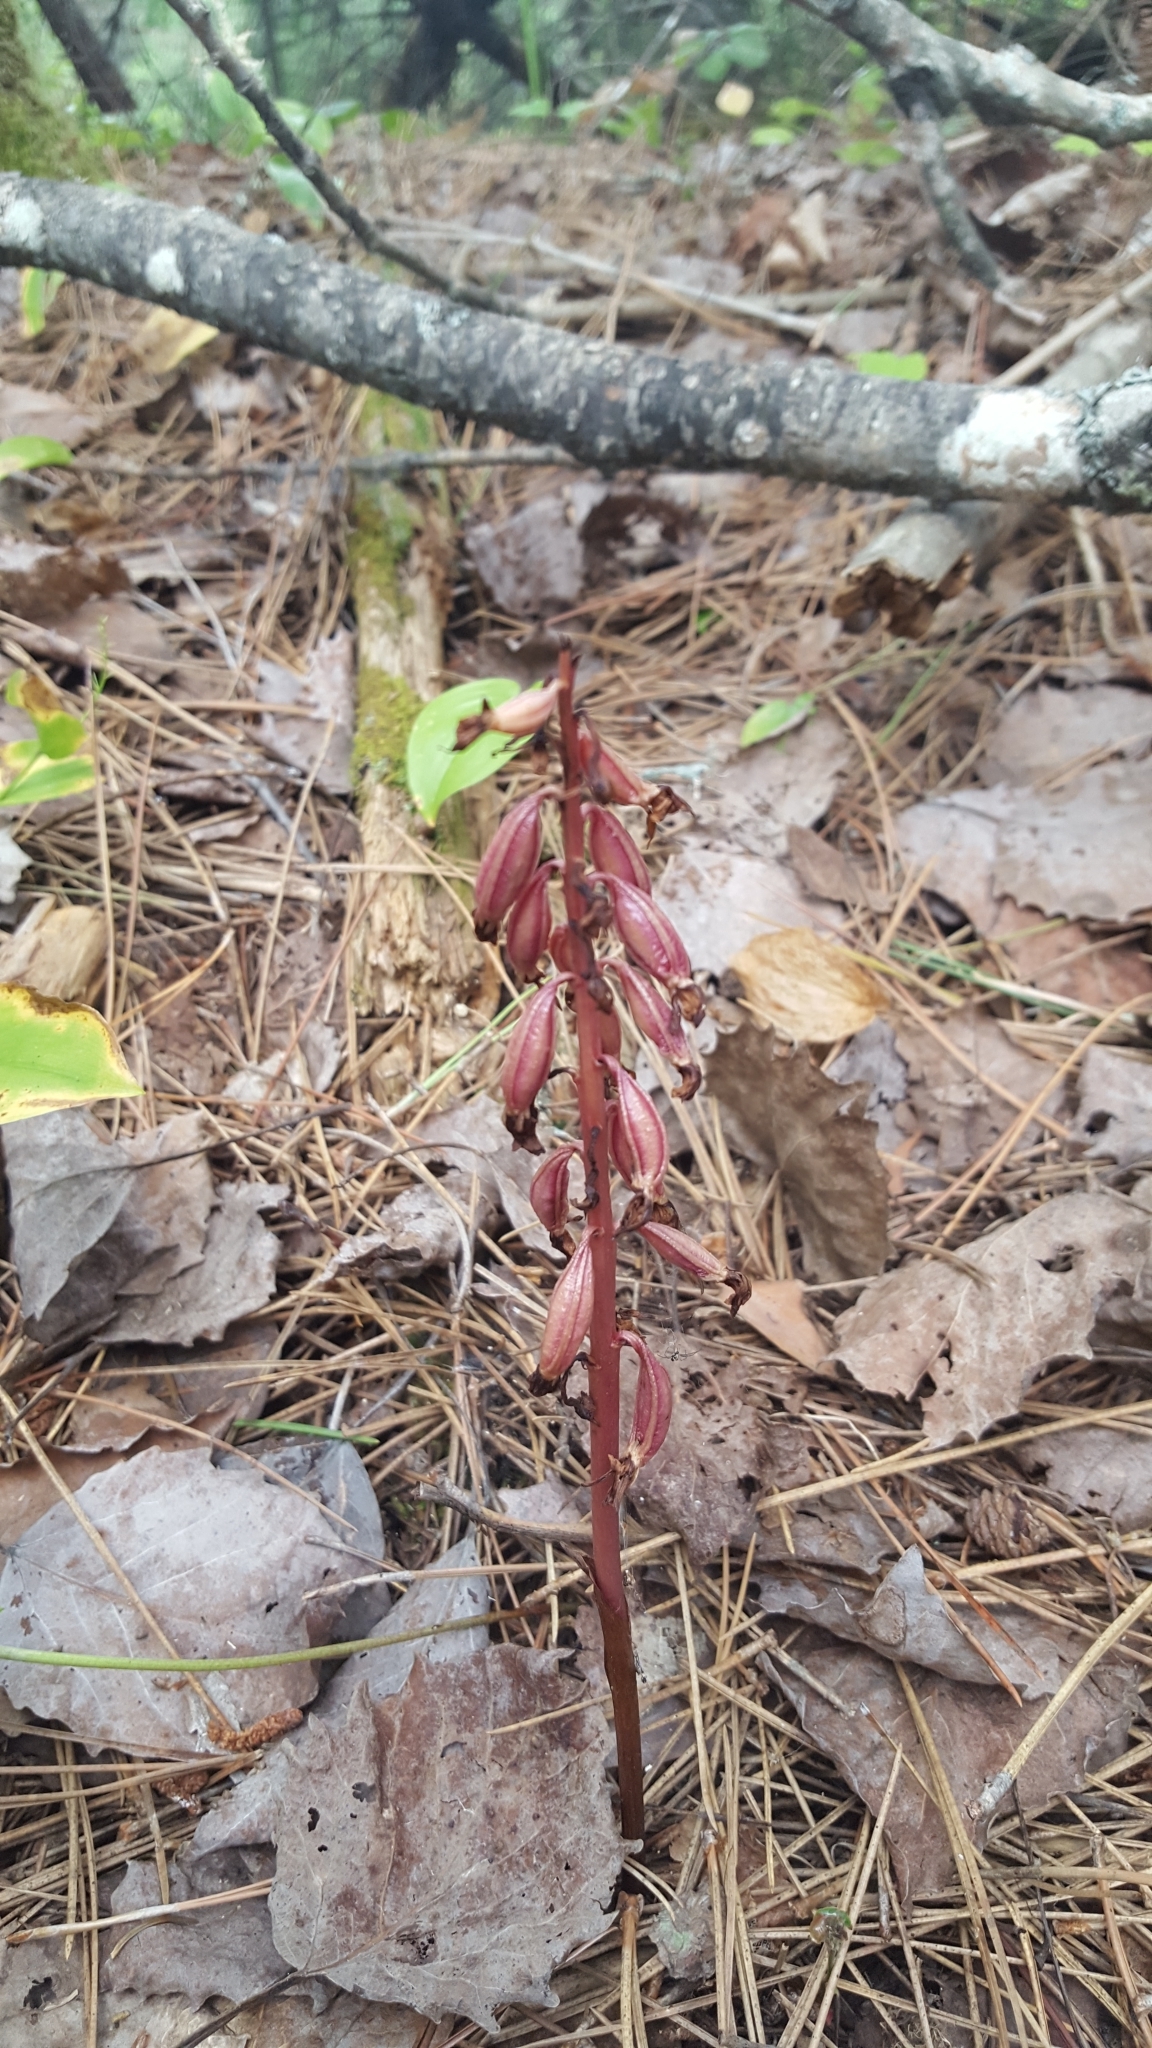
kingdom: Plantae
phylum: Tracheophyta
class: Liliopsida
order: Asparagales
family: Orchidaceae
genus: Corallorhiza
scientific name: Corallorhiza maculata
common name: Spotted coralroot
